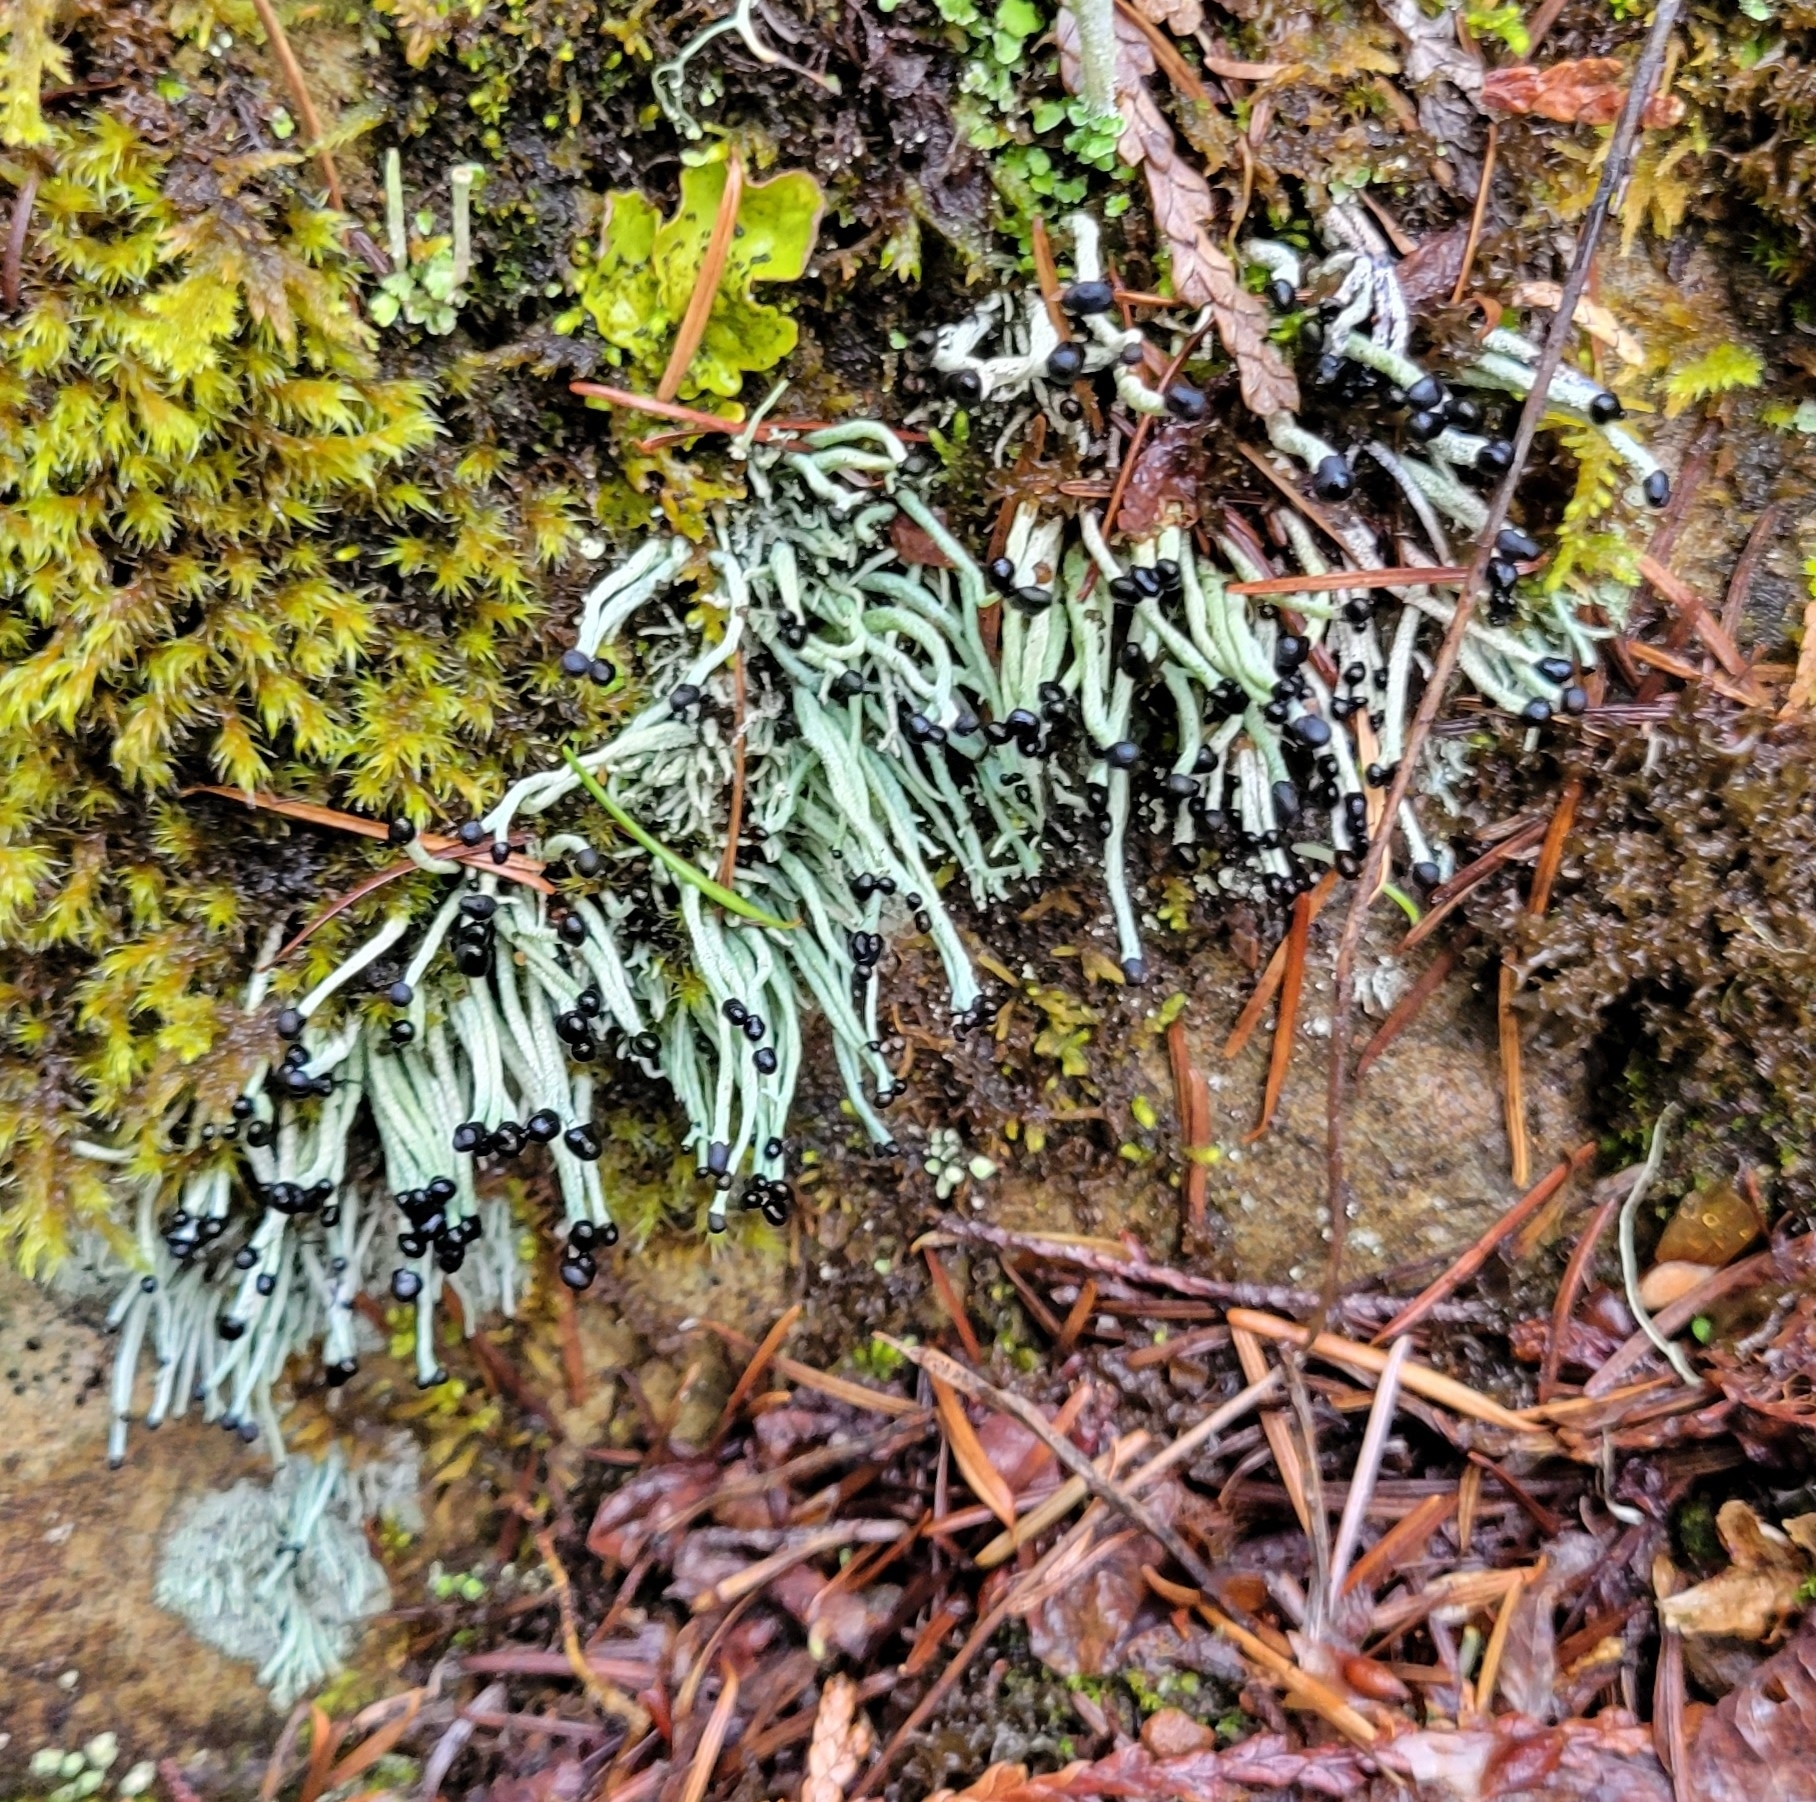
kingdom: Fungi
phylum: Ascomycota
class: Lecanoromycetes
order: Lecanorales
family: Cladoniaceae
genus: Pilophorus
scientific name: Pilophorus acicularis
